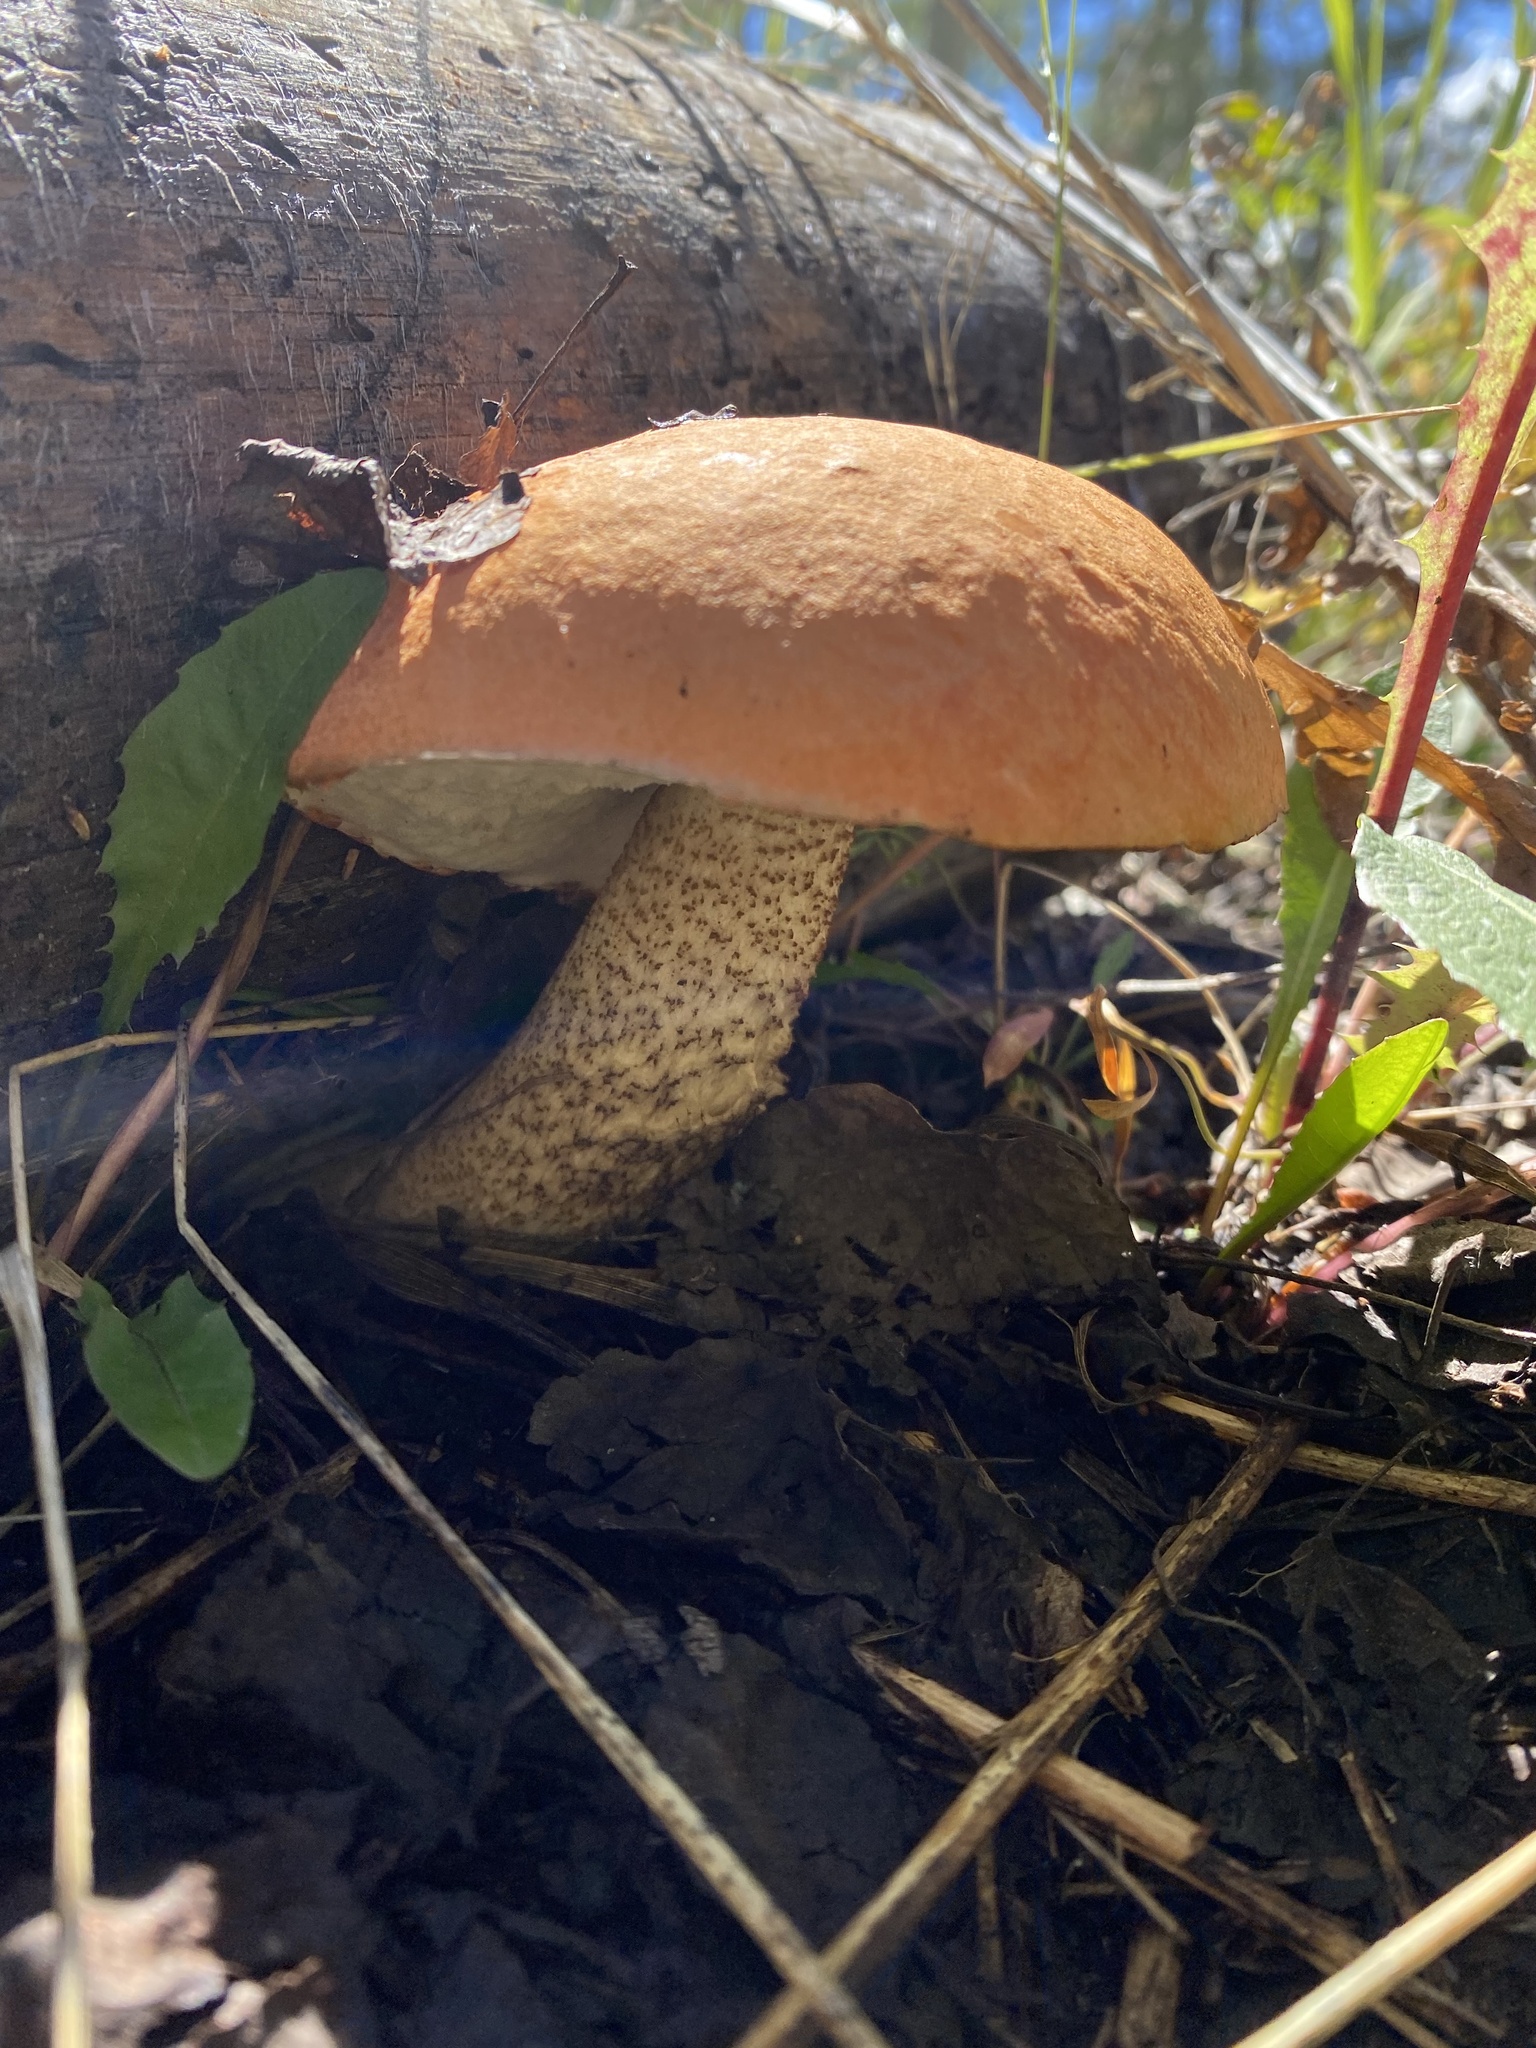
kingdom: Fungi
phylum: Basidiomycota
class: Agaricomycetes
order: Boletales
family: Boletaceae
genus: Leccinum
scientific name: Leccinum insigne
